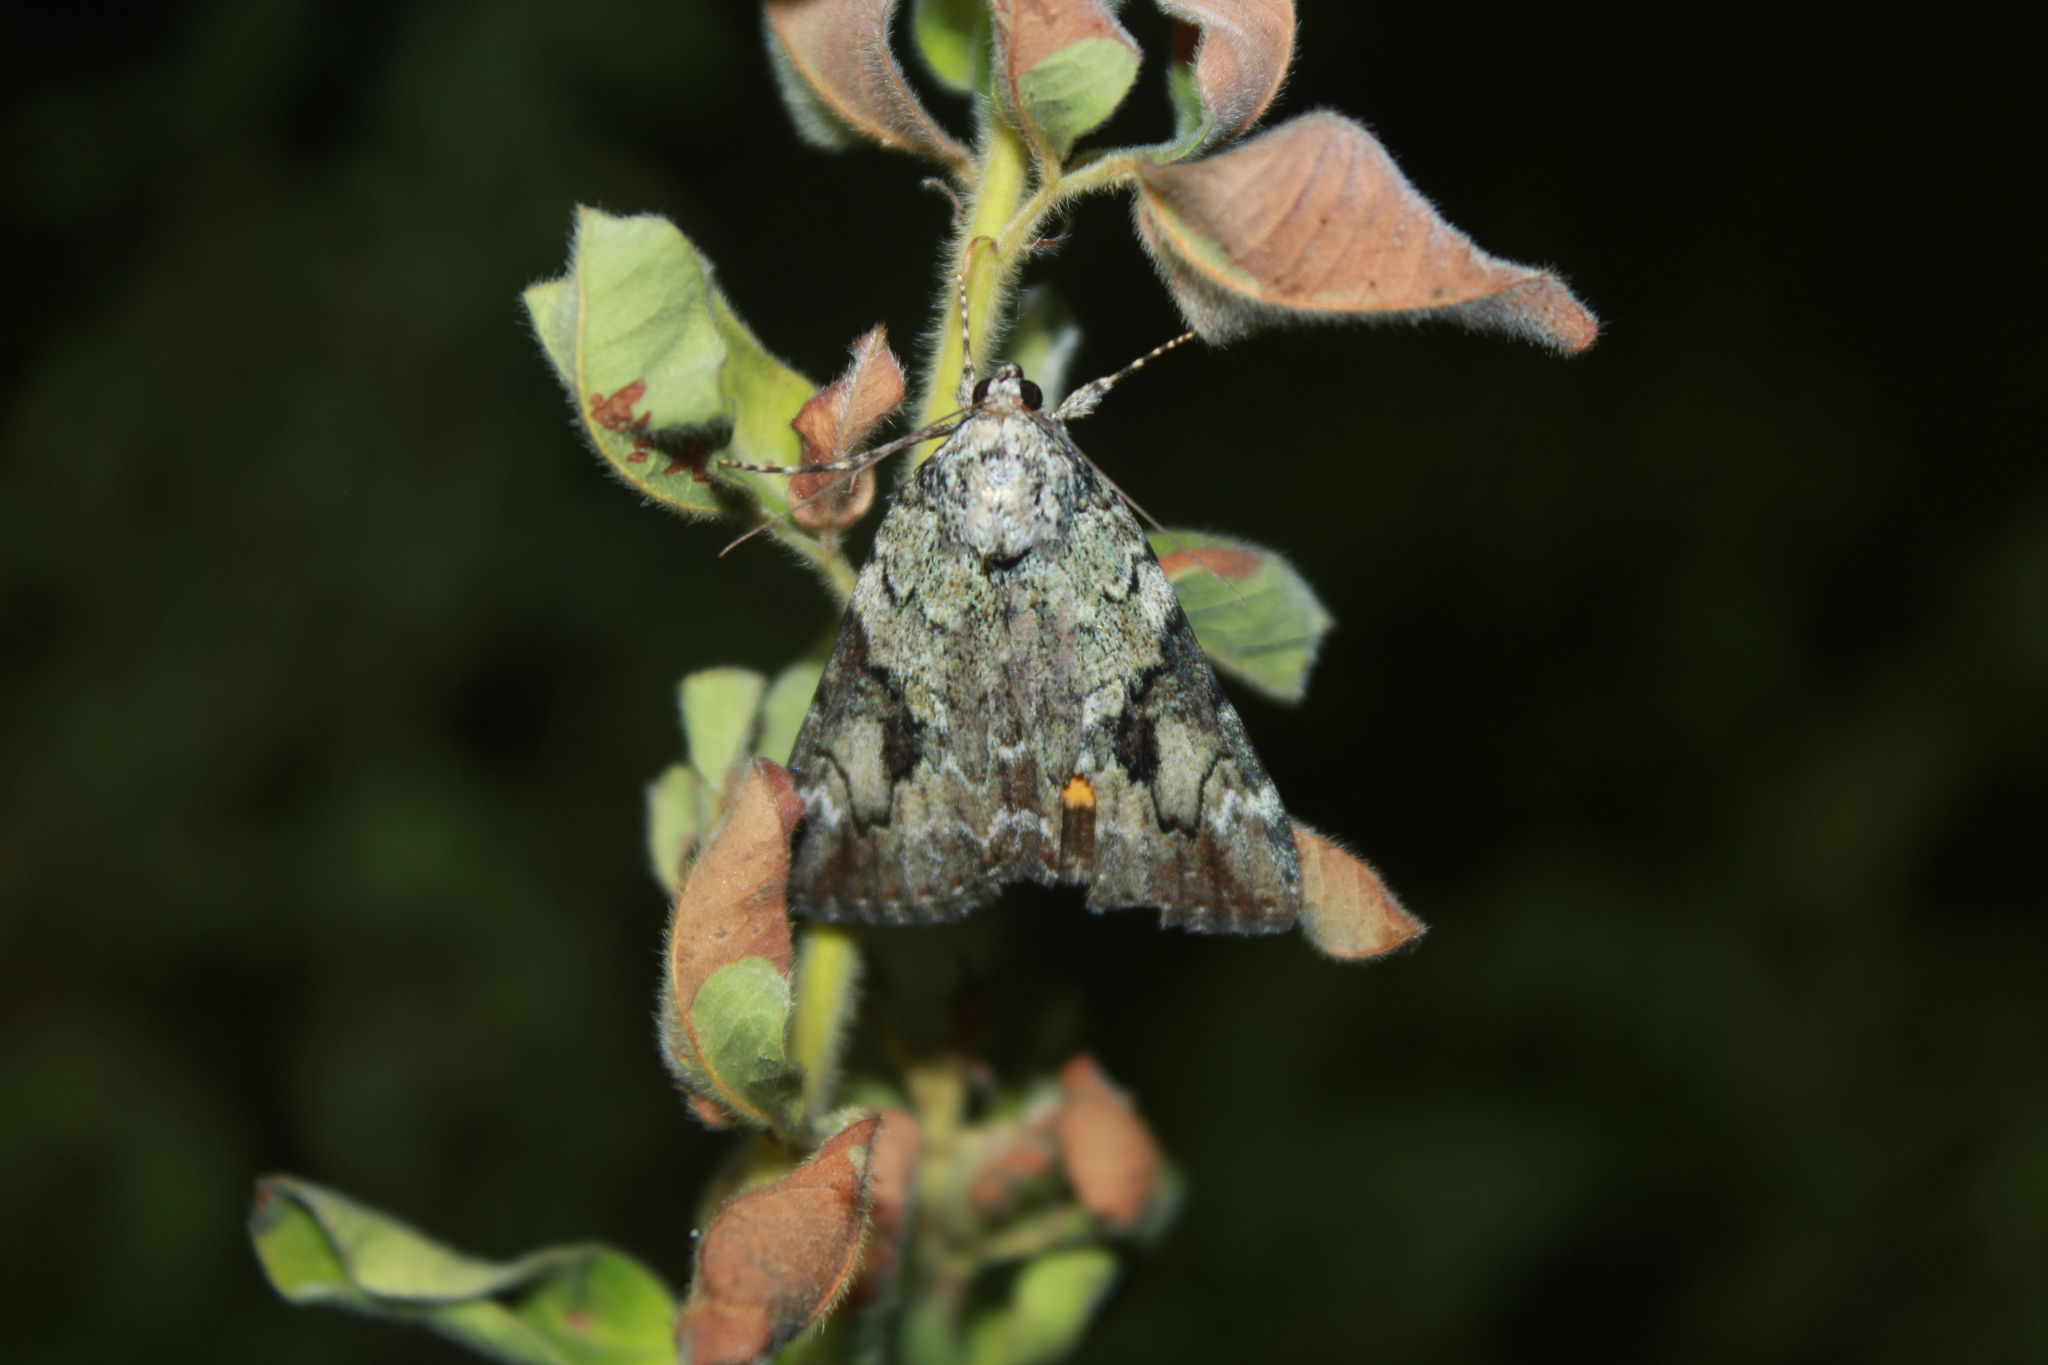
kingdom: Animalia
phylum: Arthropoda
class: Insecta
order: Lepidoptera
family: Erebidae
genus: Catocala
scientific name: Catocala micronympha
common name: Little nymph underwing
